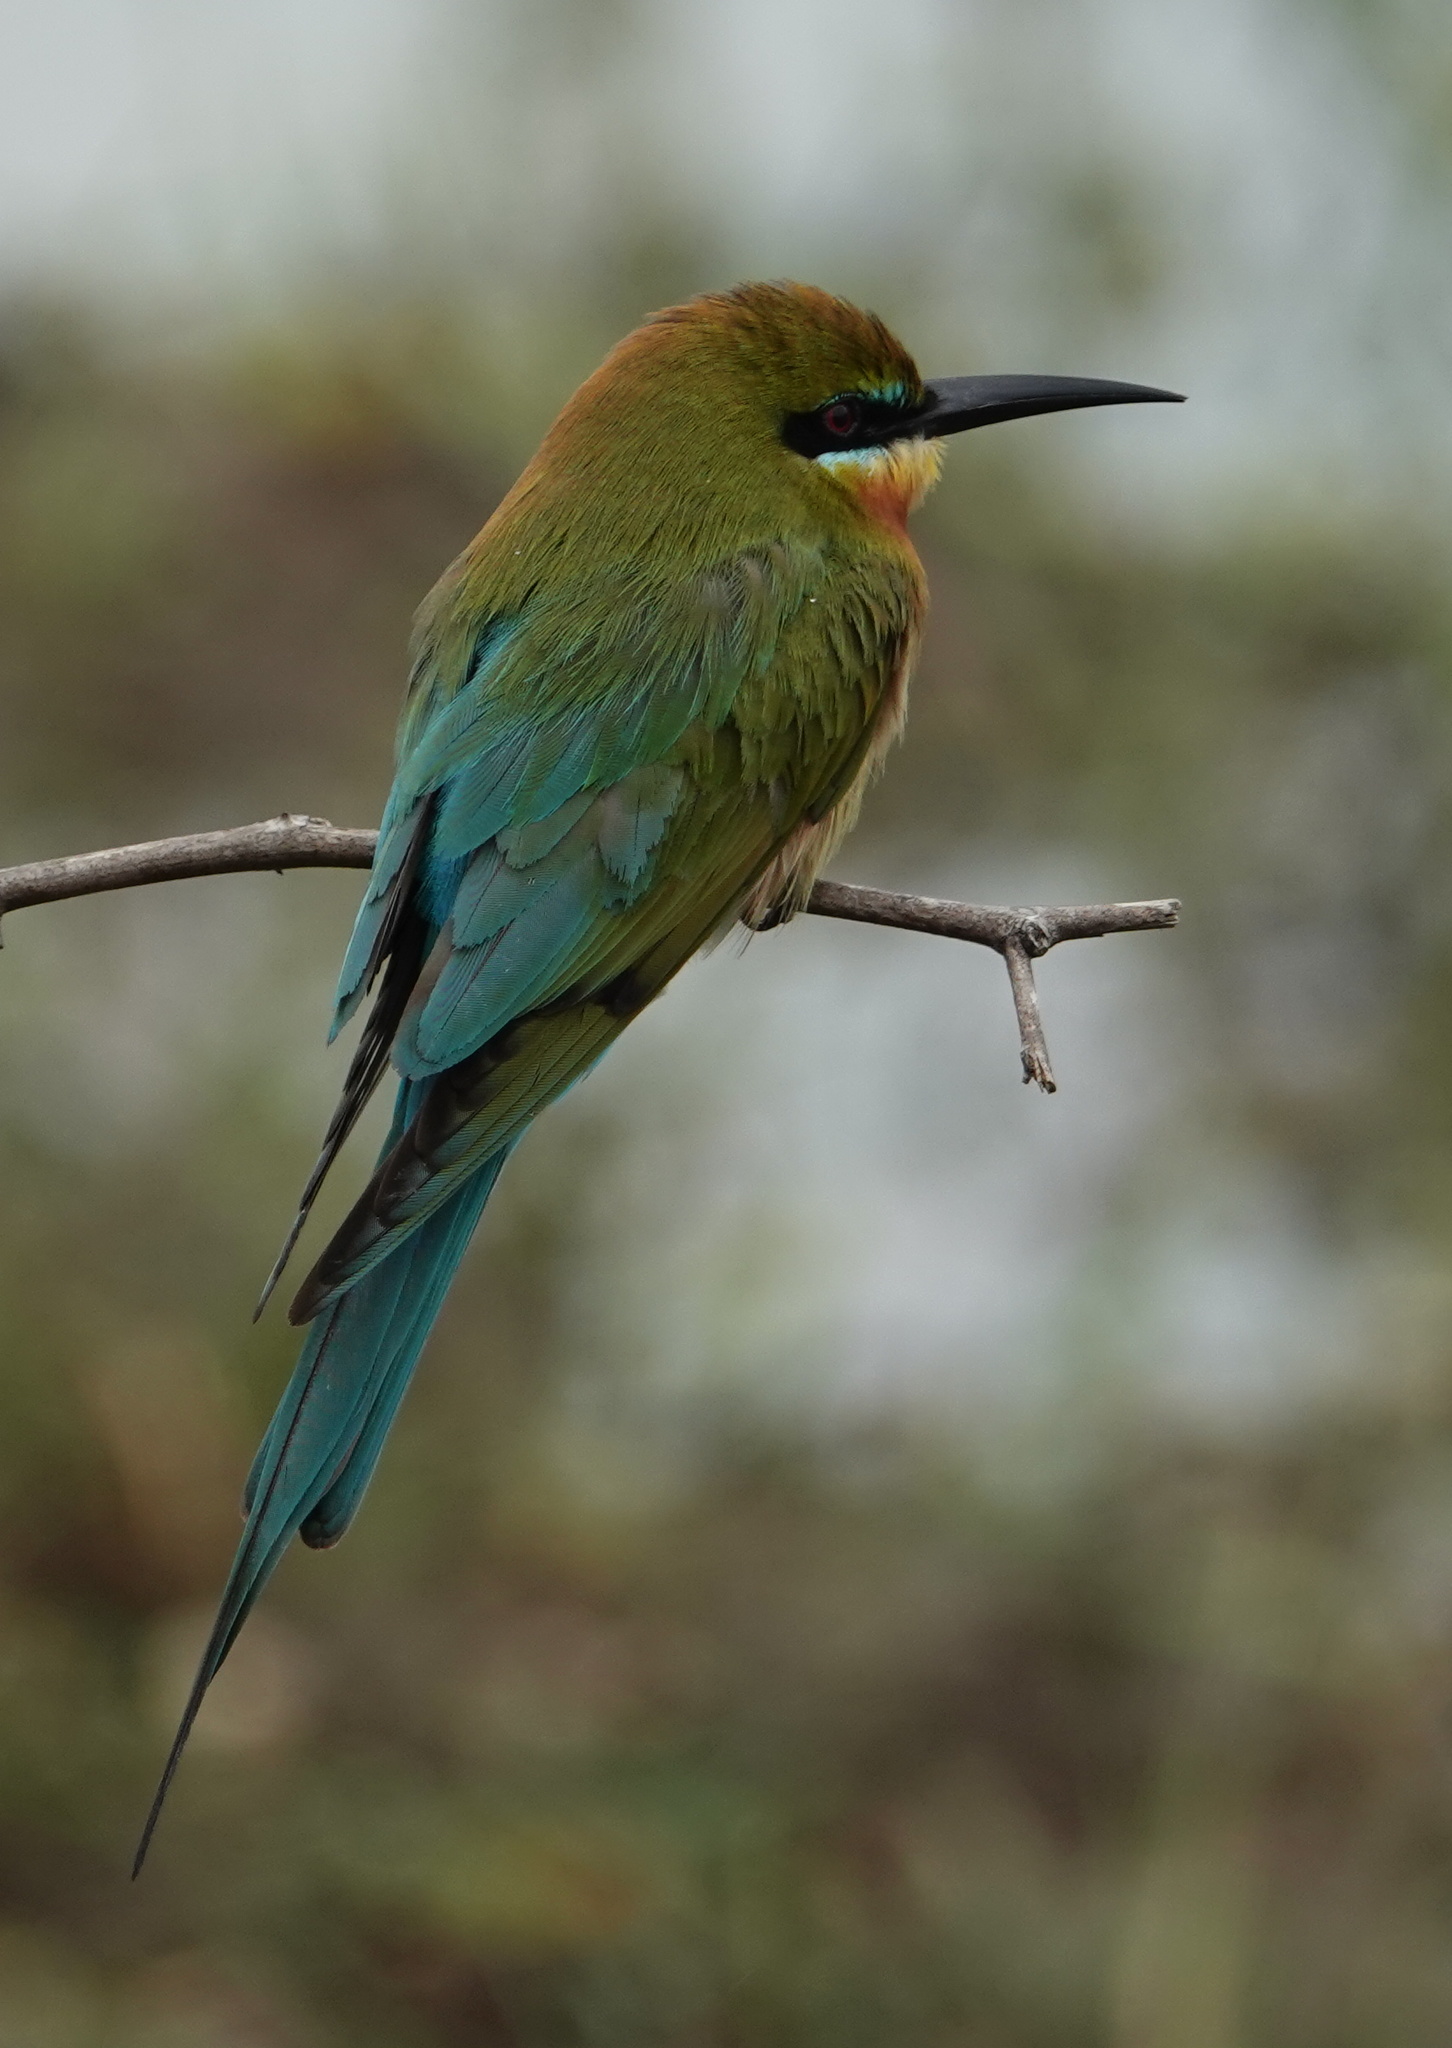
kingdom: Animalia
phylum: Chordata
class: Aves
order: Coraciiformes
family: Meropidae
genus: Merops
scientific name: Merops philippinus
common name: Blue-tailed bee-eater
